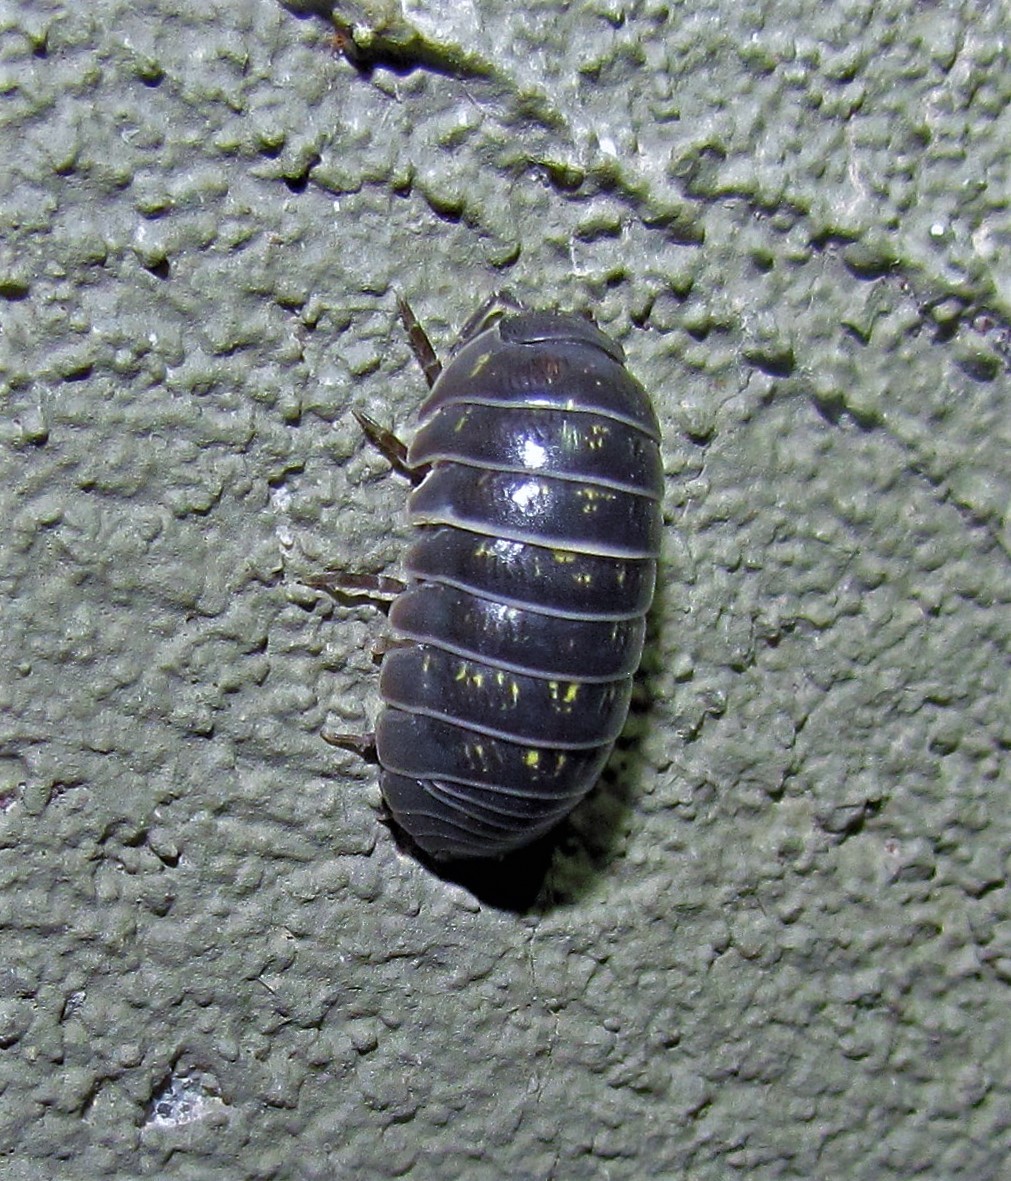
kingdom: Animalia
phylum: Arthropoda
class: Malacostraca
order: Isopoda
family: Armadillidiidae
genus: Armadillidium
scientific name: Armadillidium vulgare
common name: Common pill woodlouse
